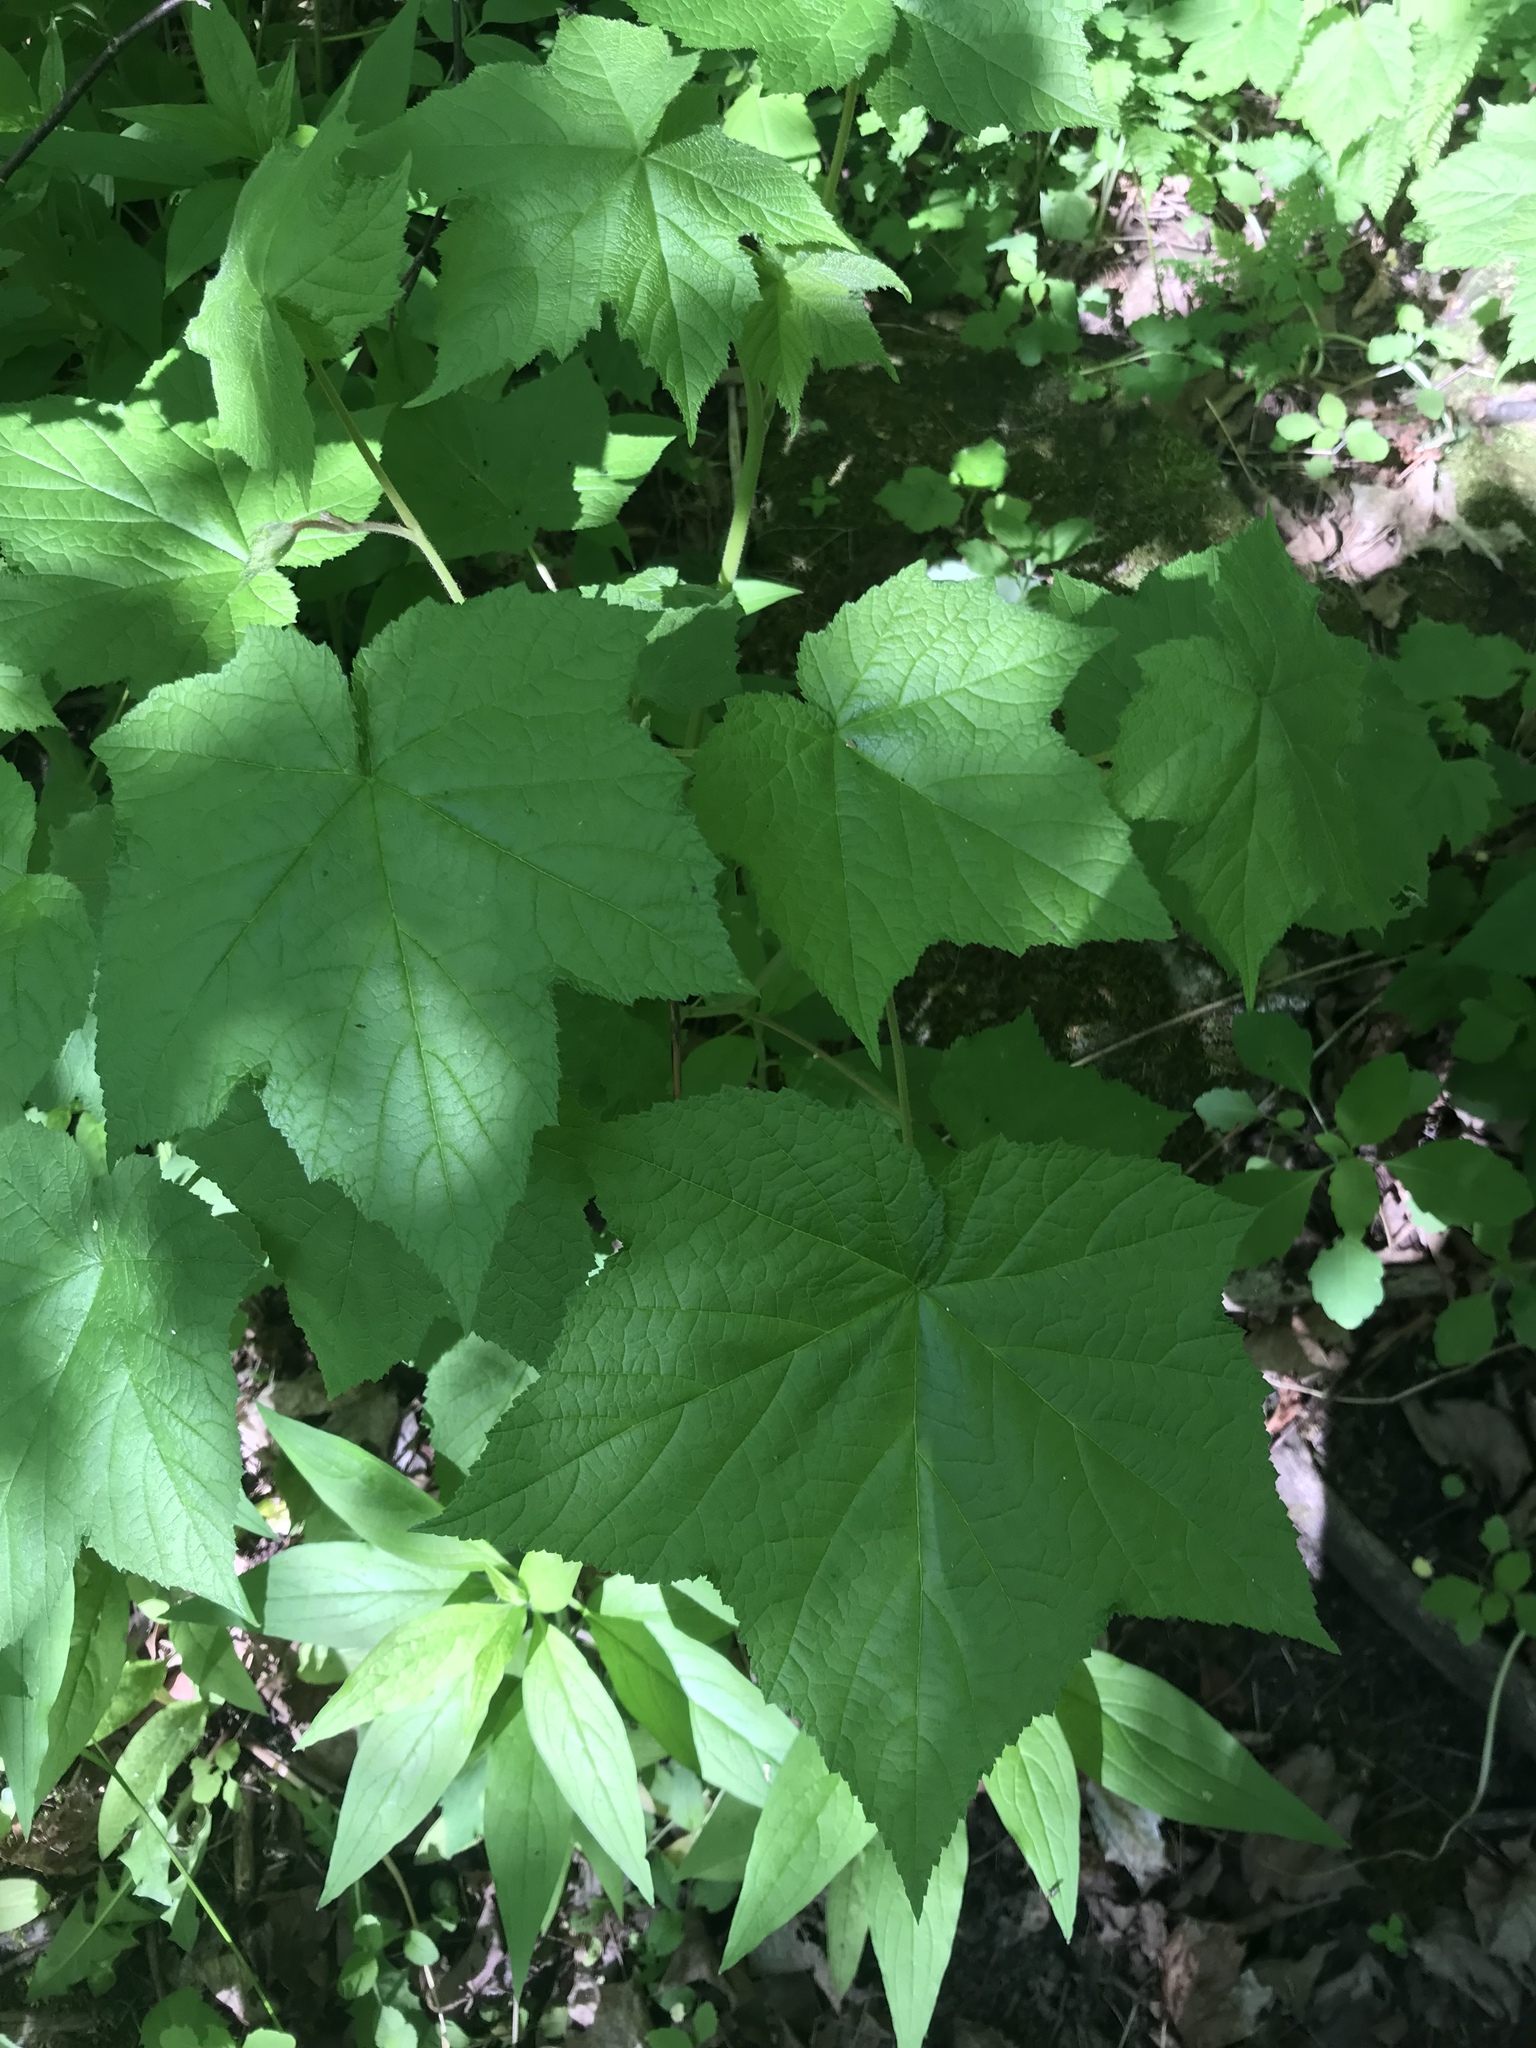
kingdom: Plantae
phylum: Tracheophyta
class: Magnoliopsida
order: Rosales
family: Rosaceae
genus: Rubus
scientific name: Rubus odoratus
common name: Purple-flowered raspberry
